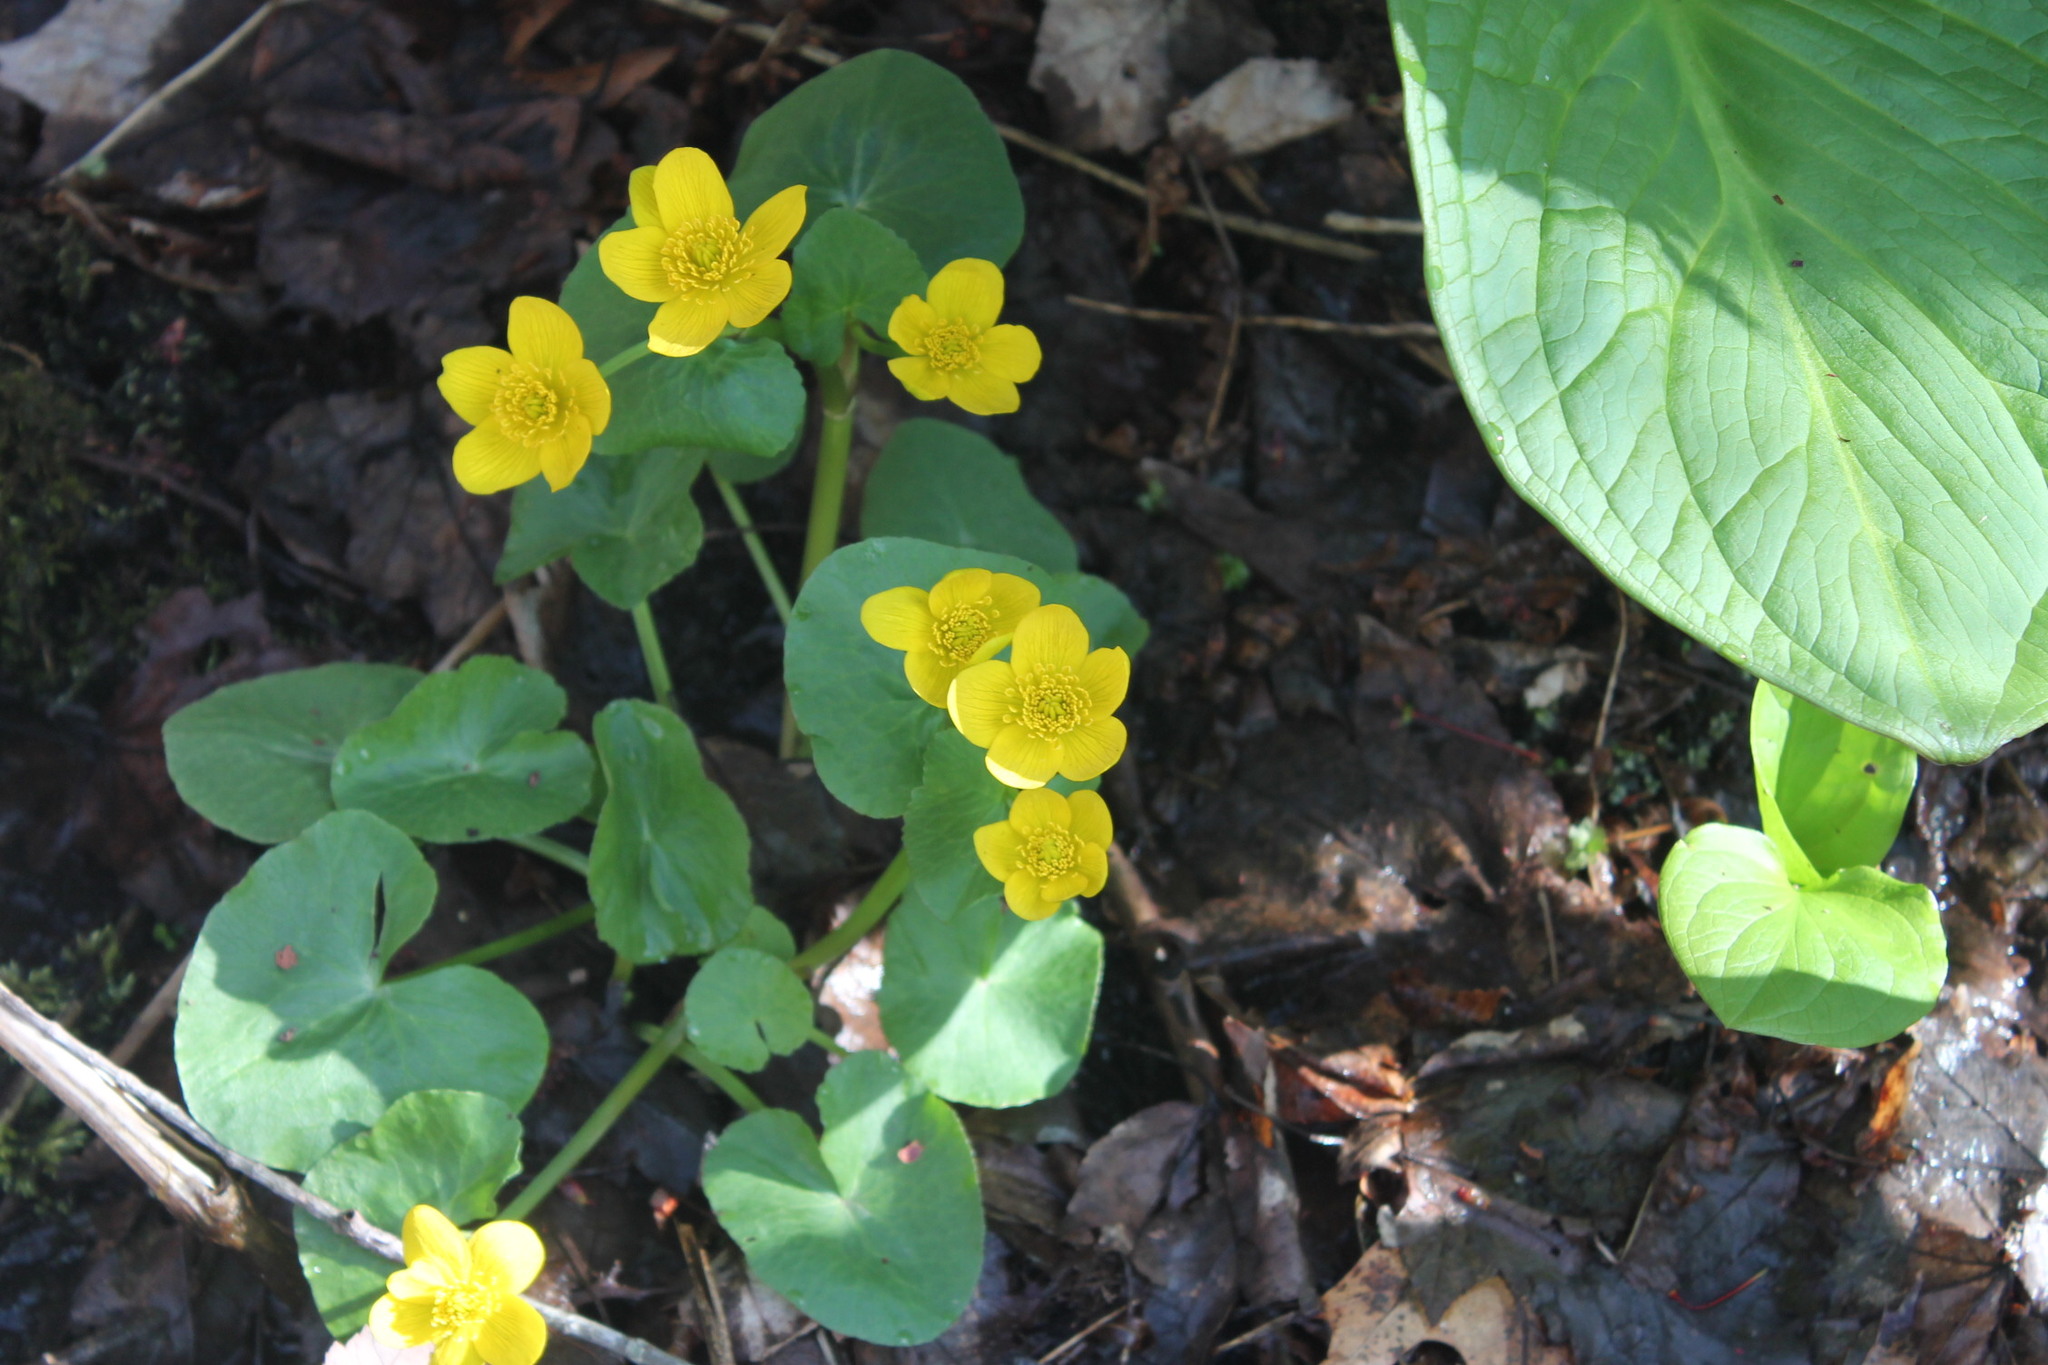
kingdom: Plantae
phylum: Tracheophyta
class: Magnoliopsida
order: Ranunculales
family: Ranunculaceae
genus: Caltha
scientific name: Caltha palustris
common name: Marsh marigold
